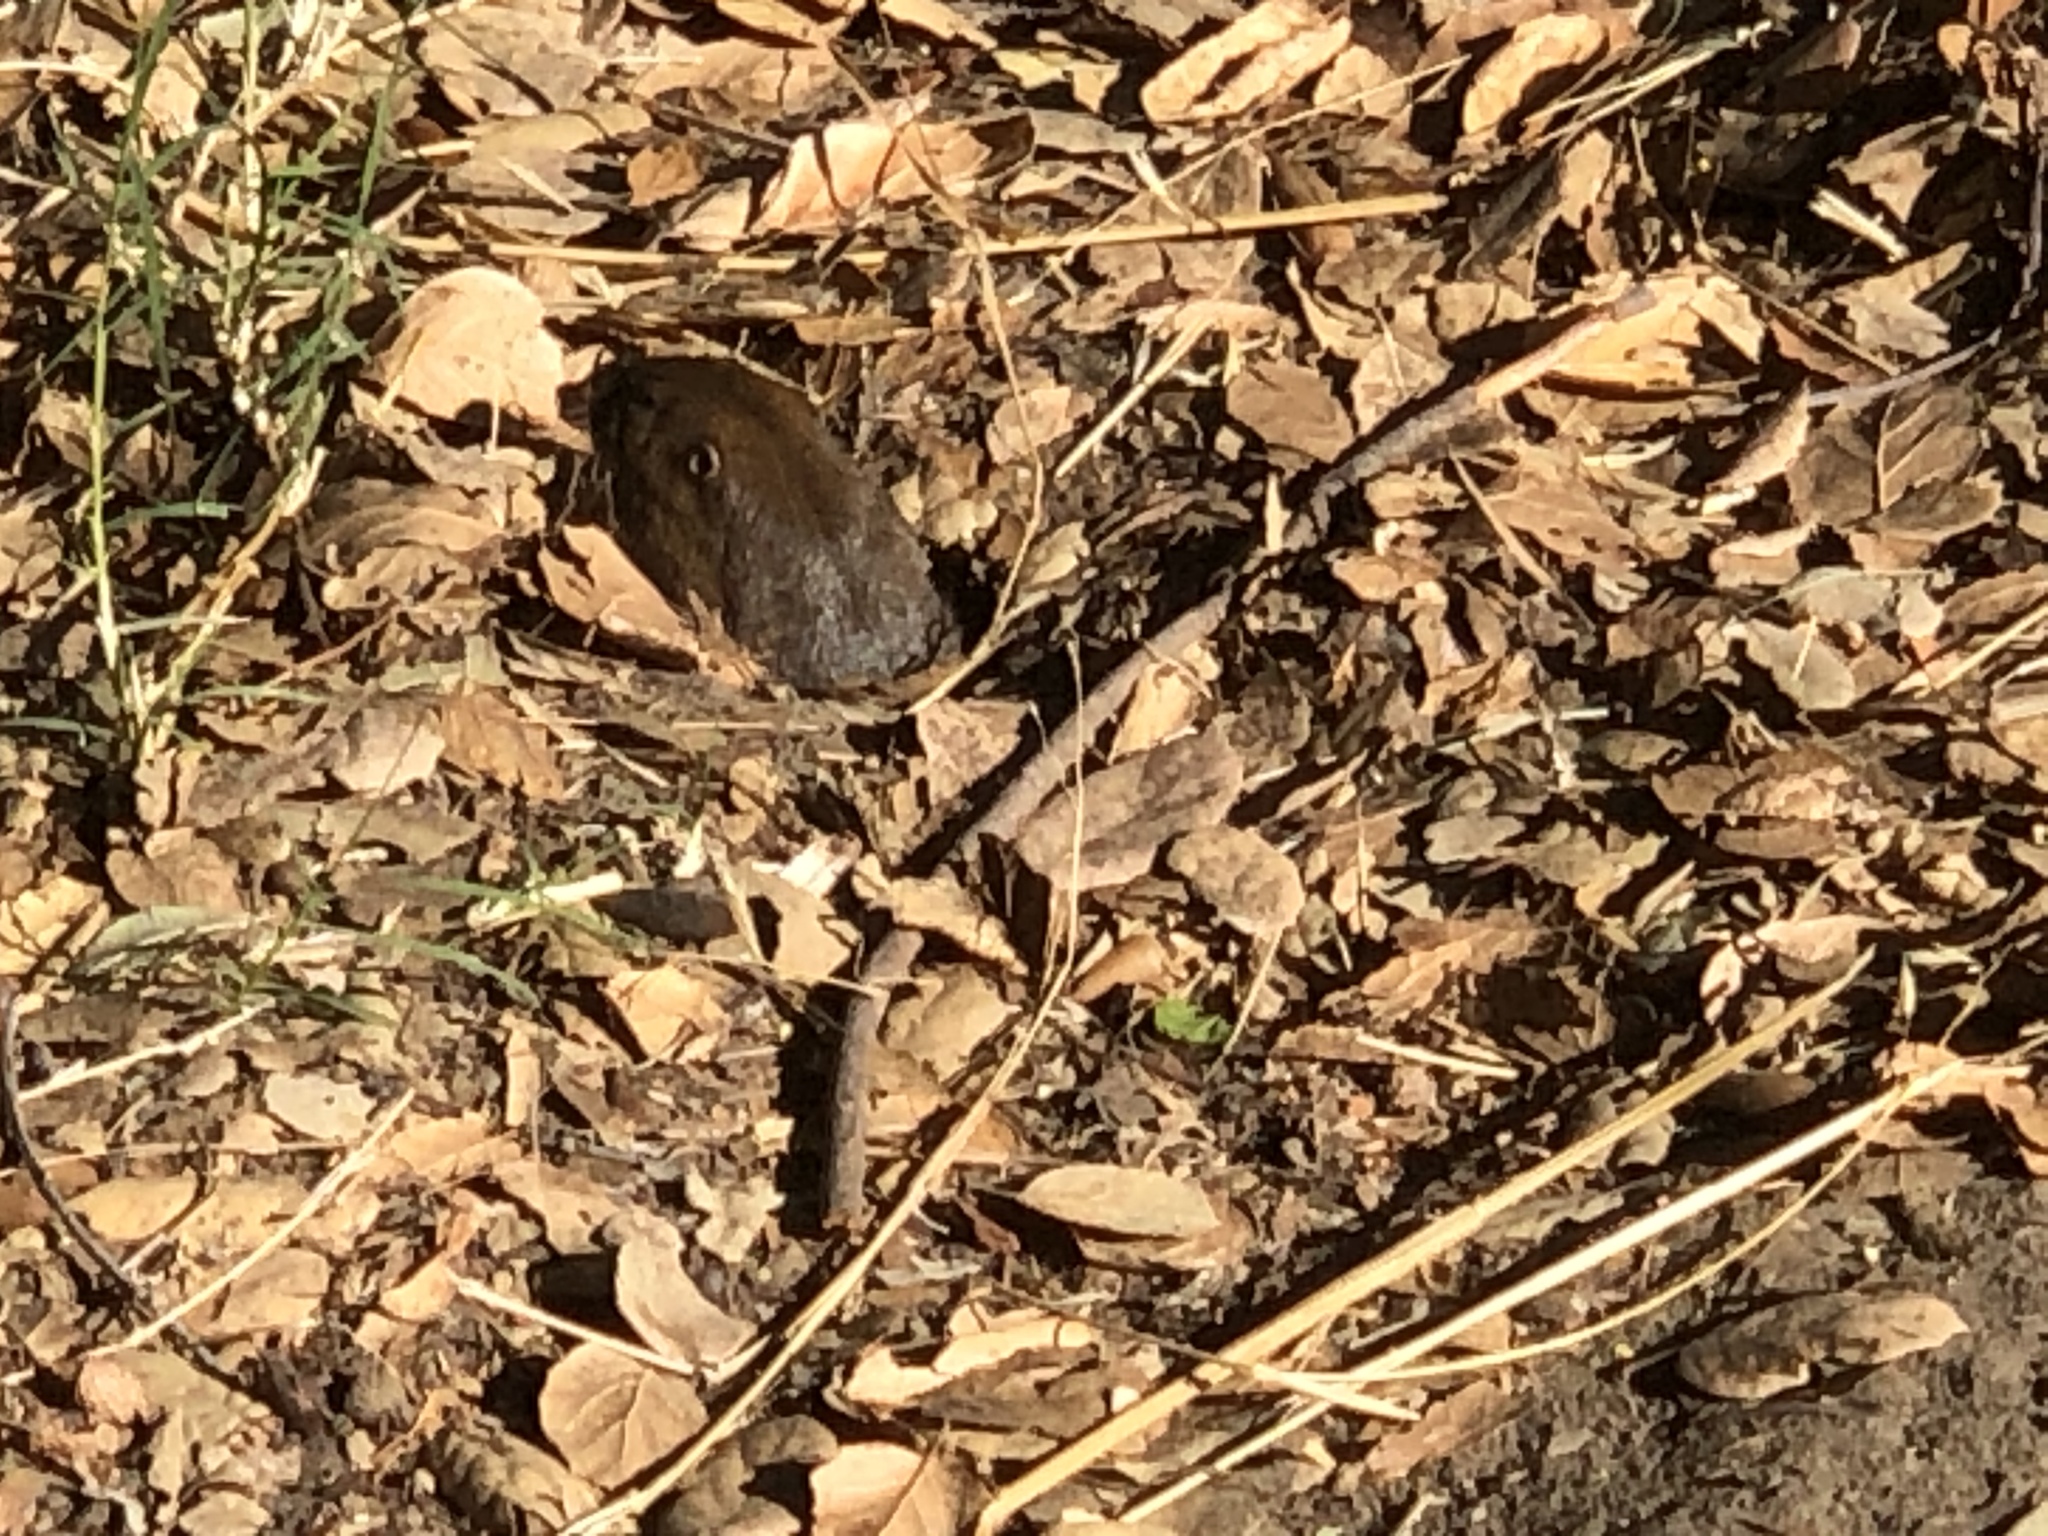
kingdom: Animalia
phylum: Chordata
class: Mammalia
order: Rodentia
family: Geomyidae
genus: Thomomys
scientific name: Thomomys bottae
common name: Botta's pocket gopher
